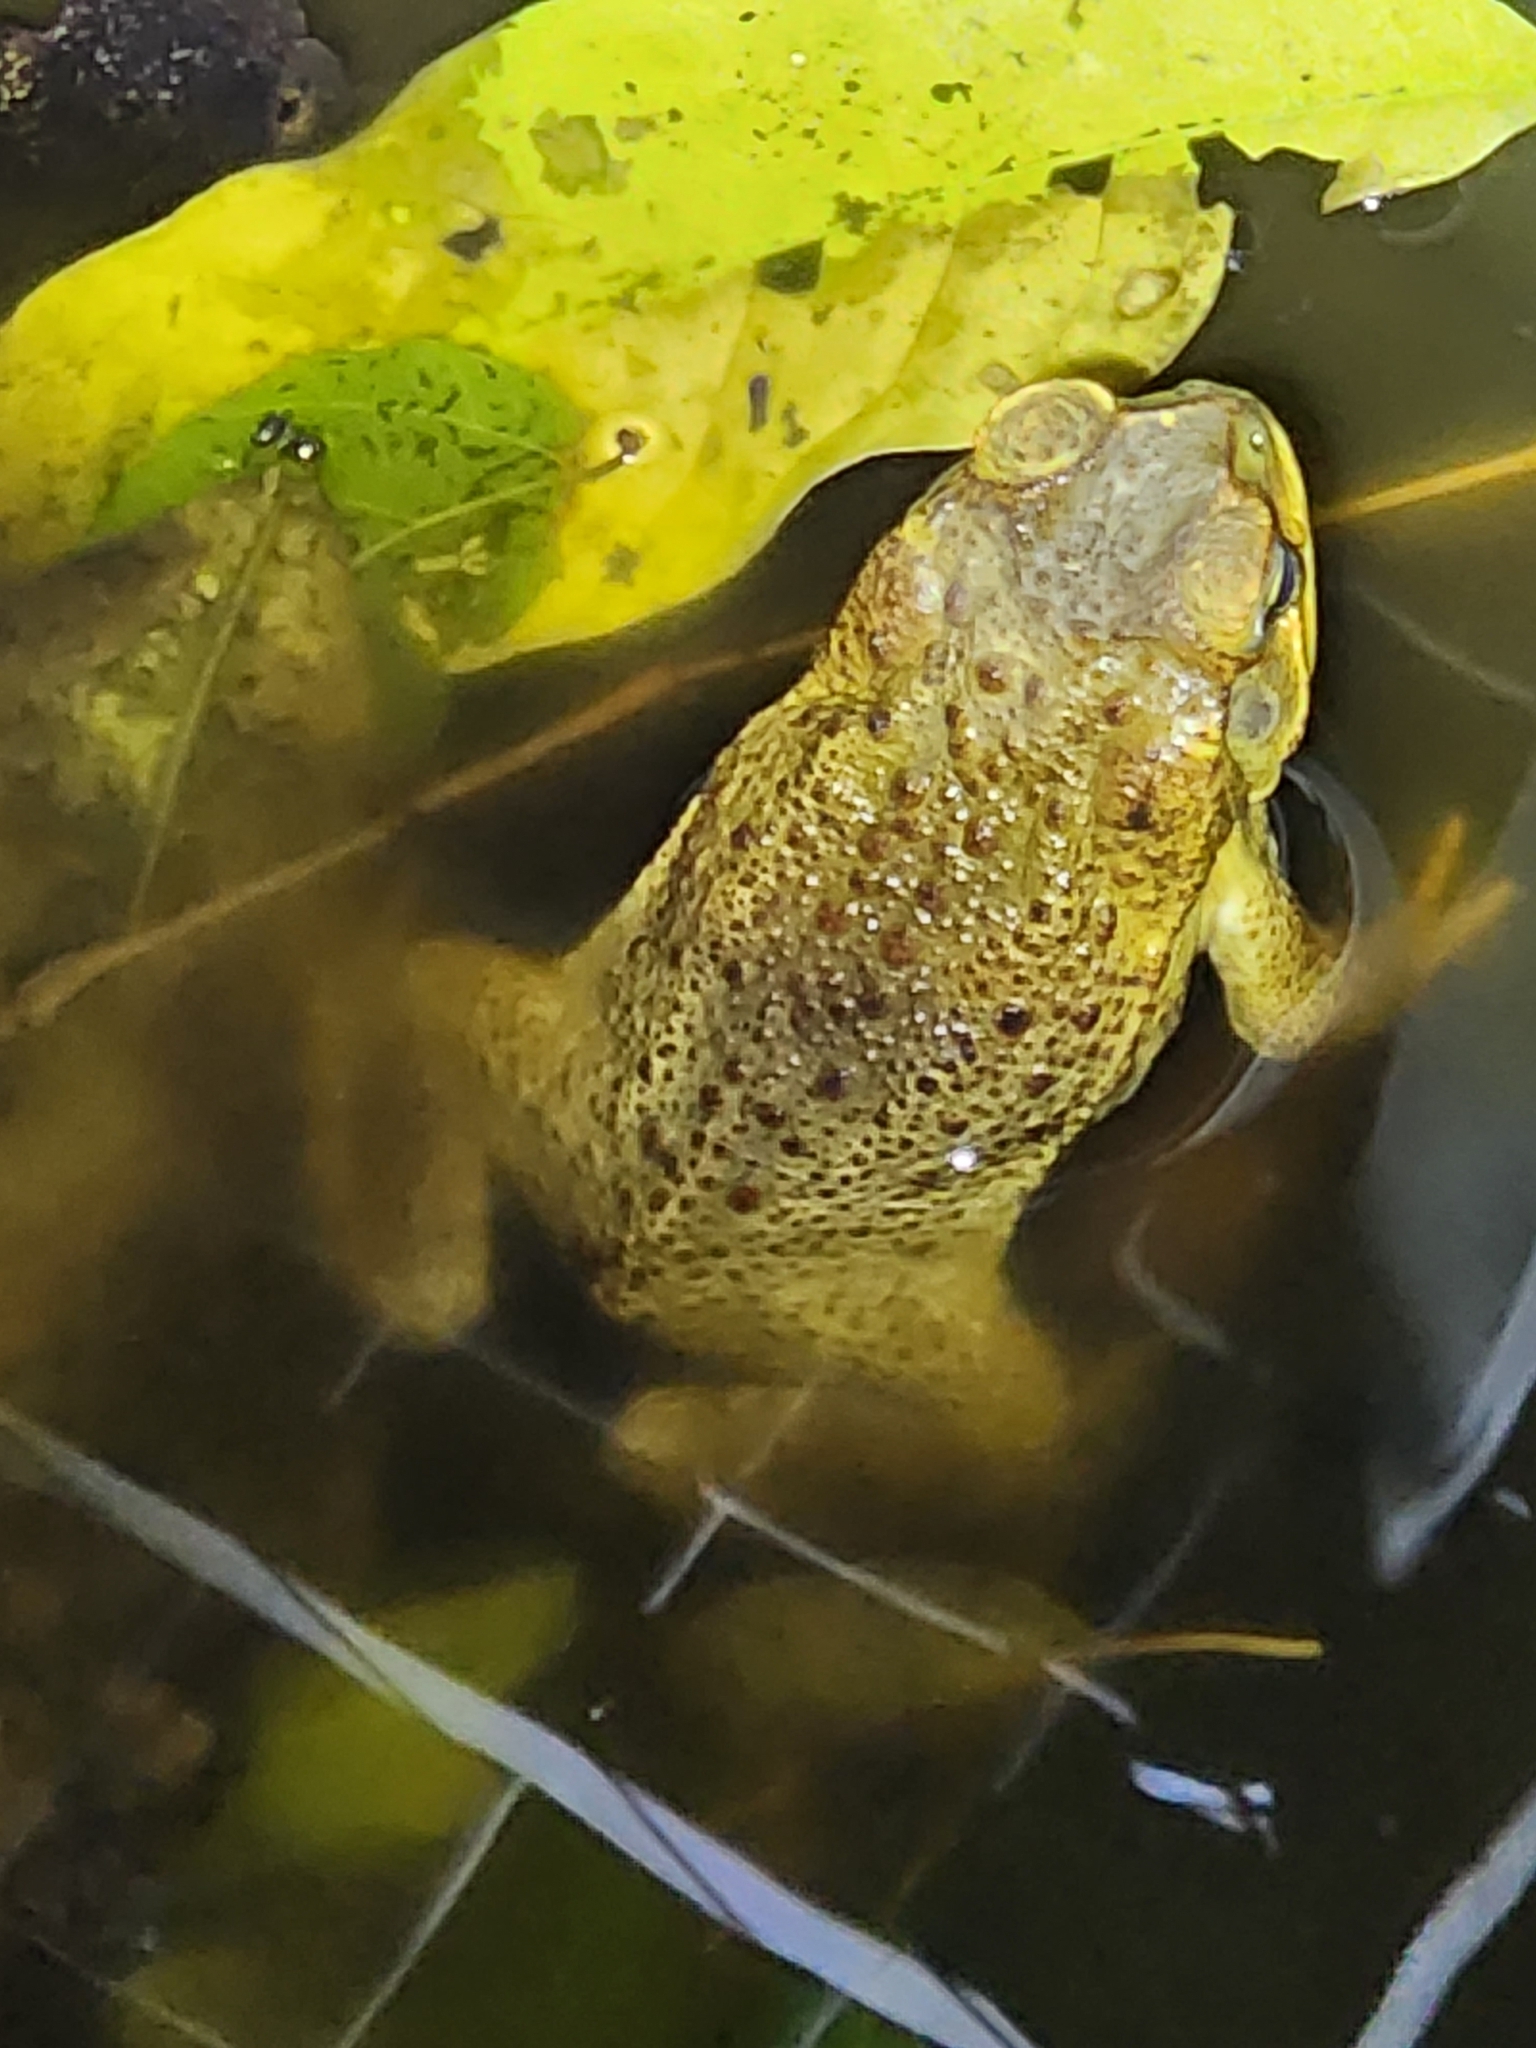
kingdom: Animalia
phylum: Chordata
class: Amphibia
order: Anura
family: Bufonidae
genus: Rhinella
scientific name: Rhinella marina
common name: Cane toad
